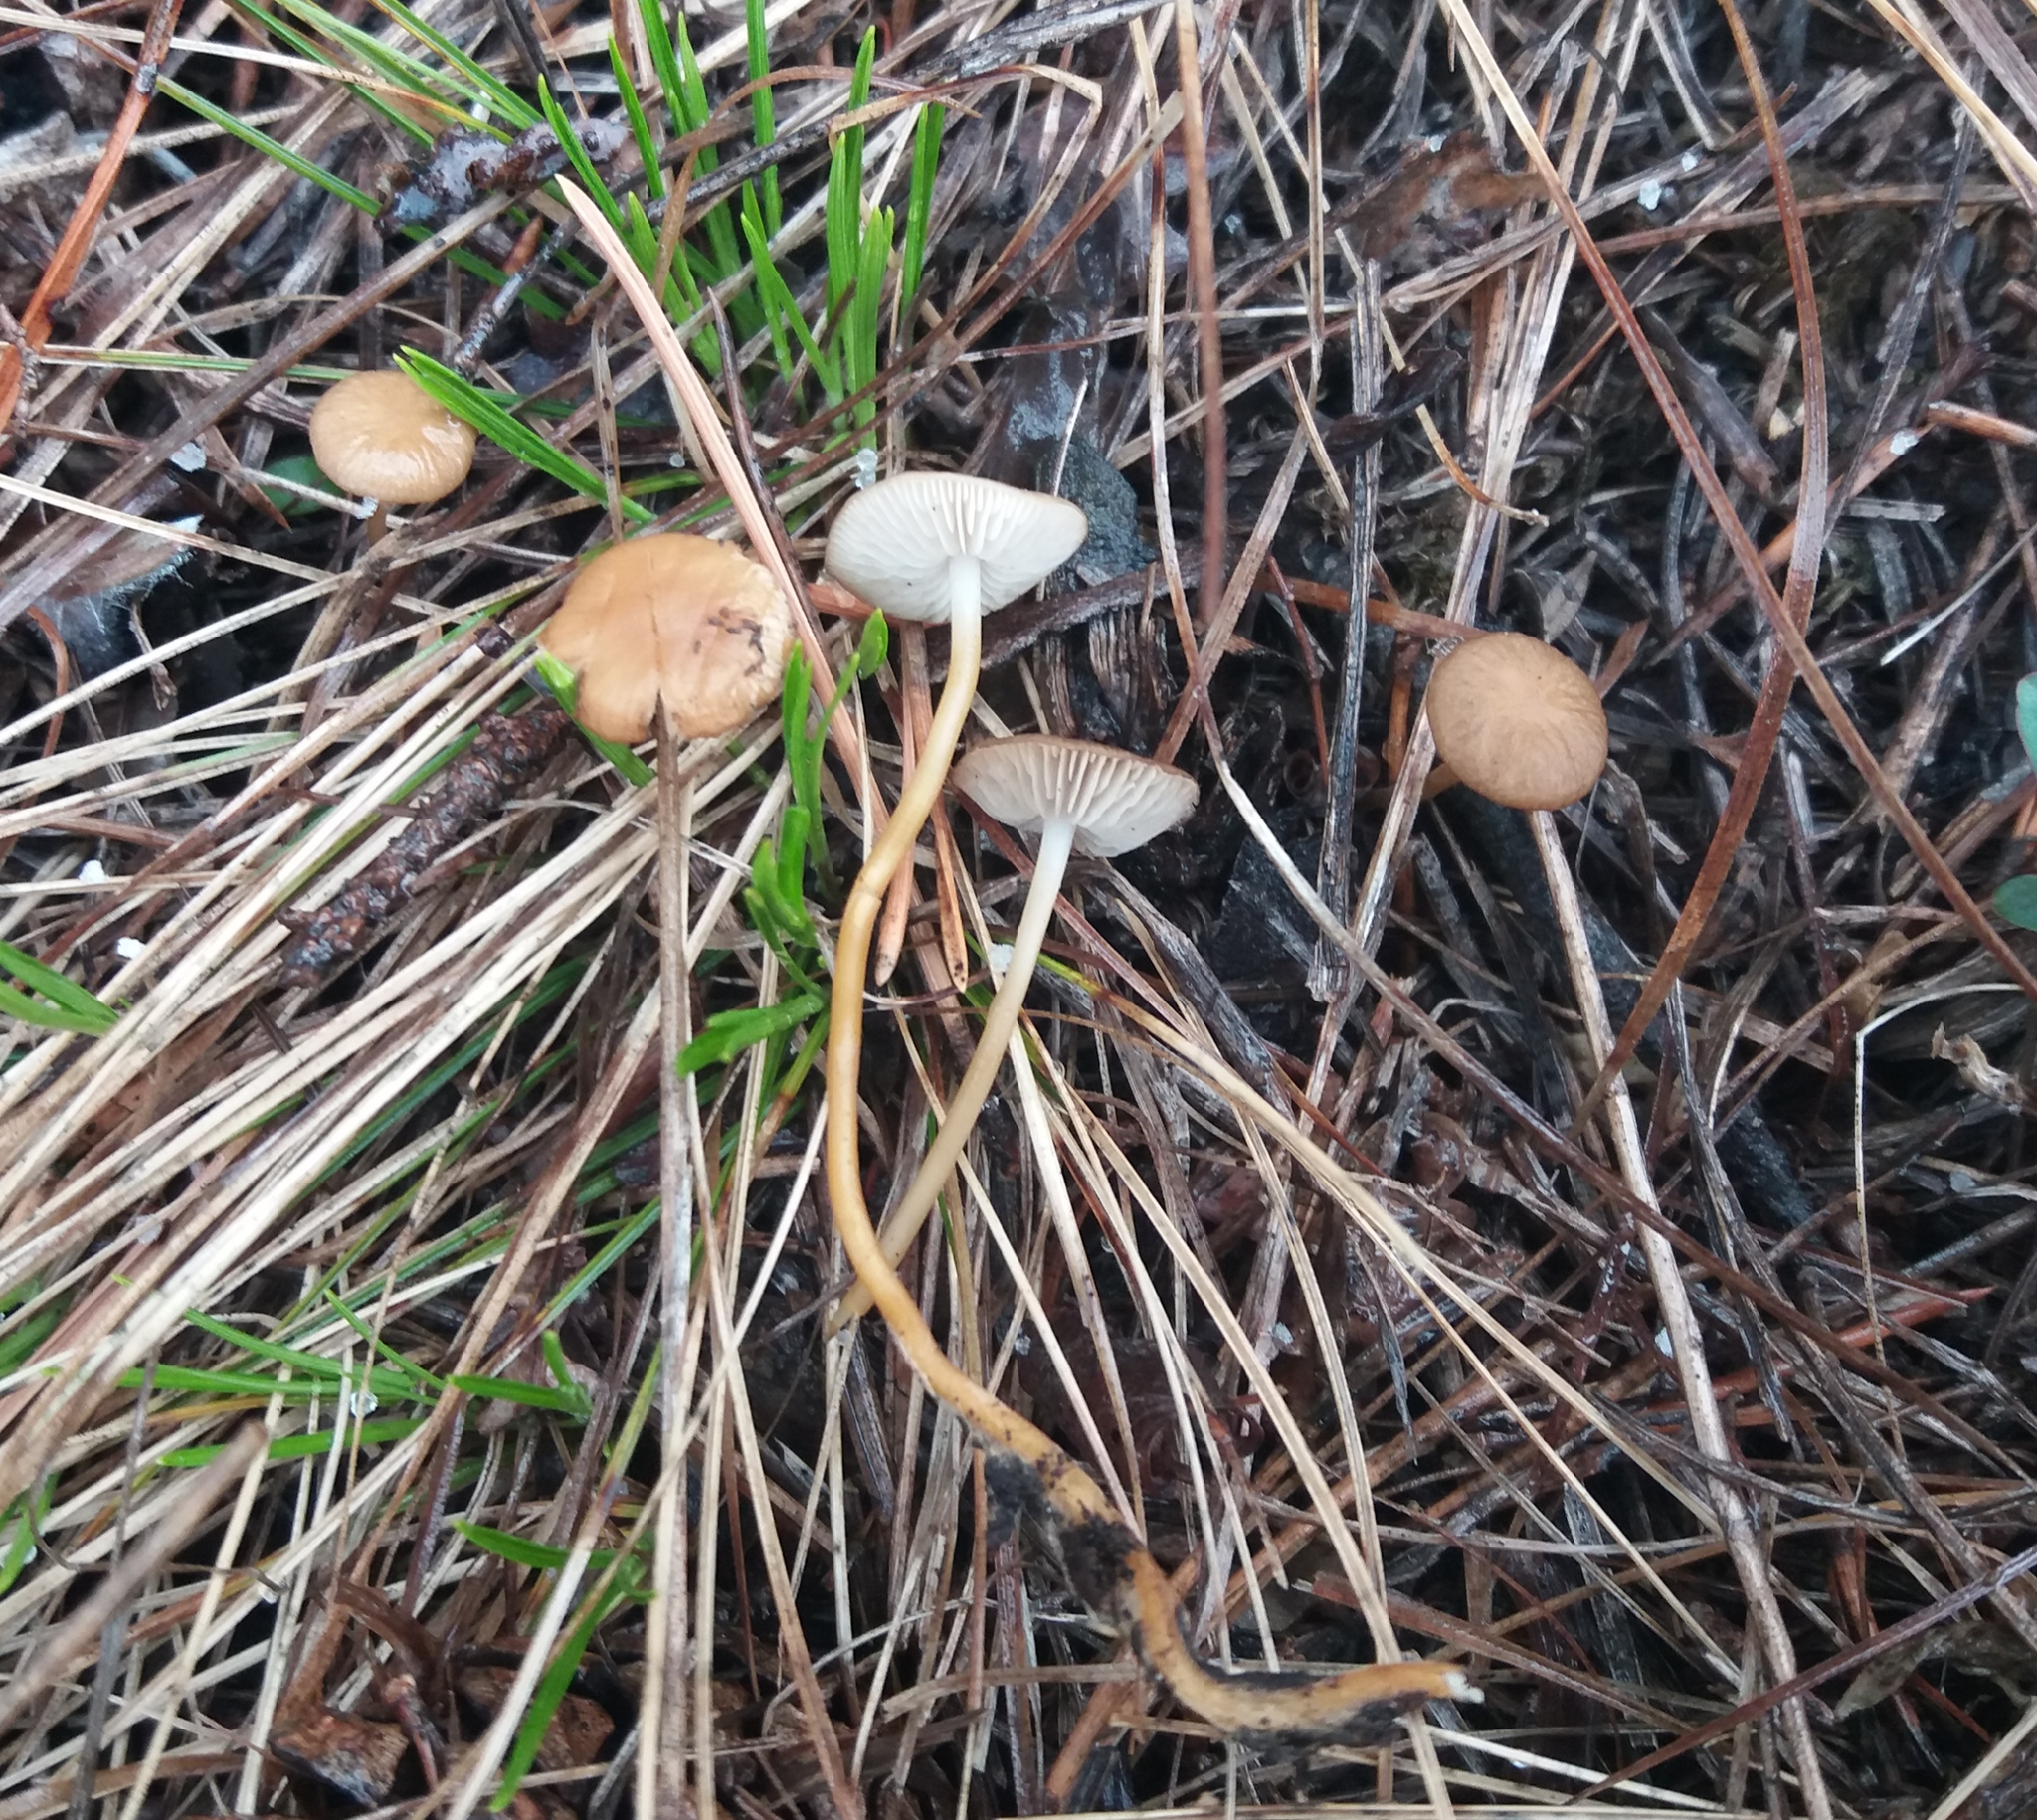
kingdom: Fungi
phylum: Basidiomycota
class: Agaricomycetes
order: Agaricales
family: Physalacriaceae
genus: Strobilurus
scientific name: Strobilurus tenacellus
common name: Pinecone cap
